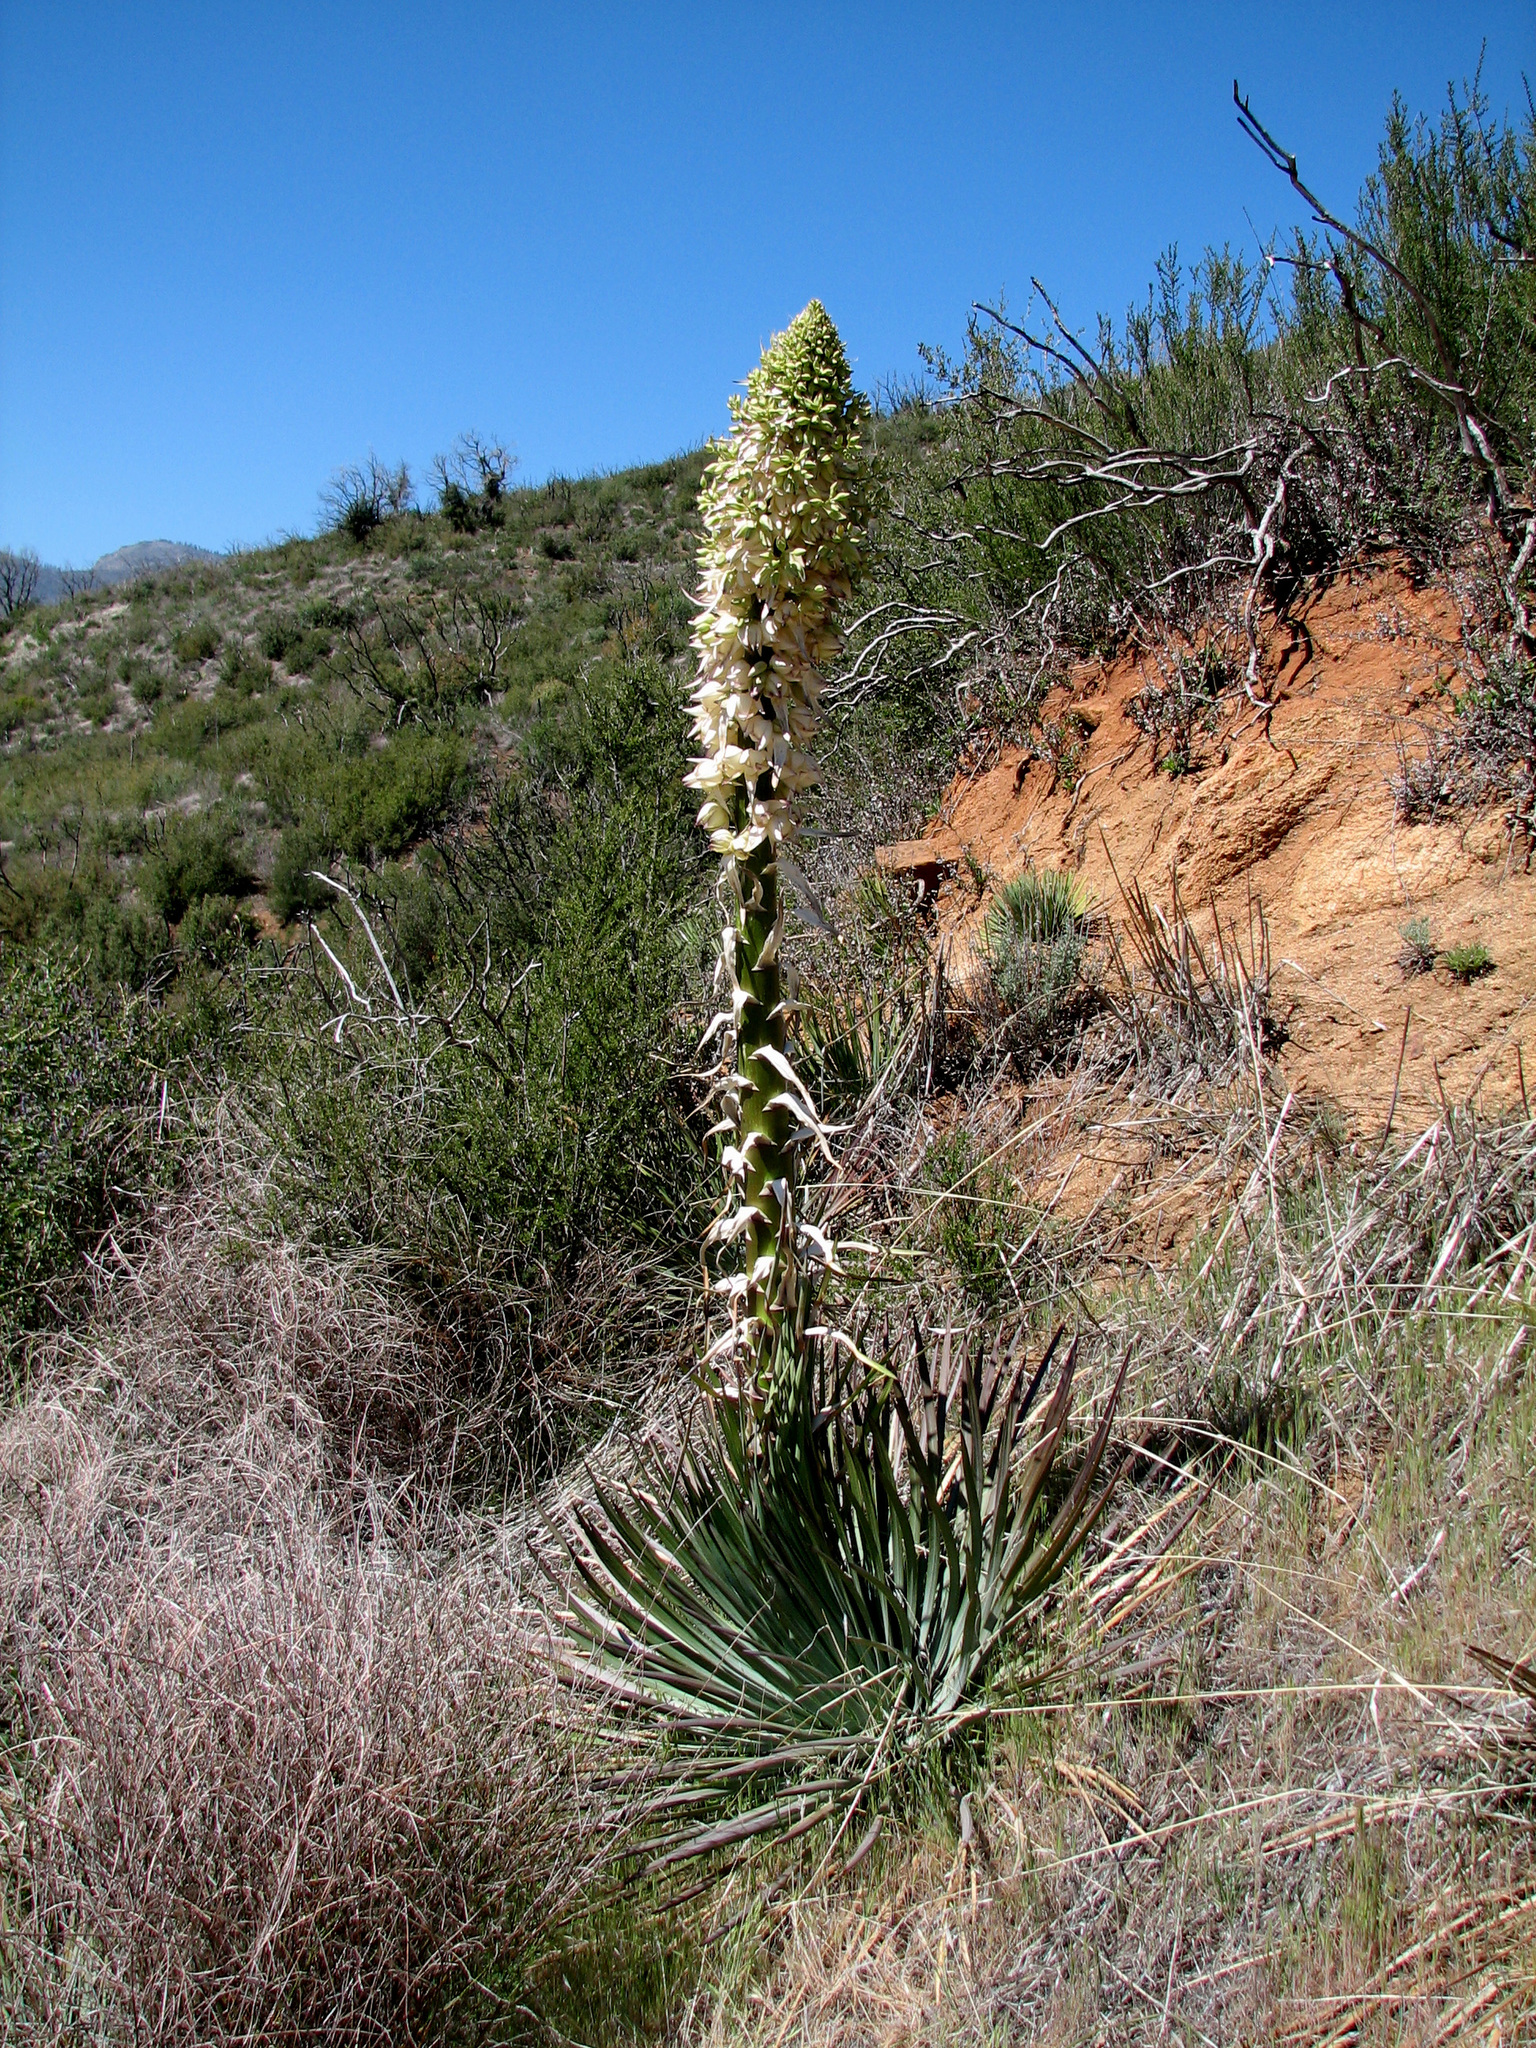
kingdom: Plantae
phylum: Tracheophyta
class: Liliopsida
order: Asparagales
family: Asparagaceae
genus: Hesperoyucca
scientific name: Hesperoyucca whipplei
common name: Our lord's-candle
